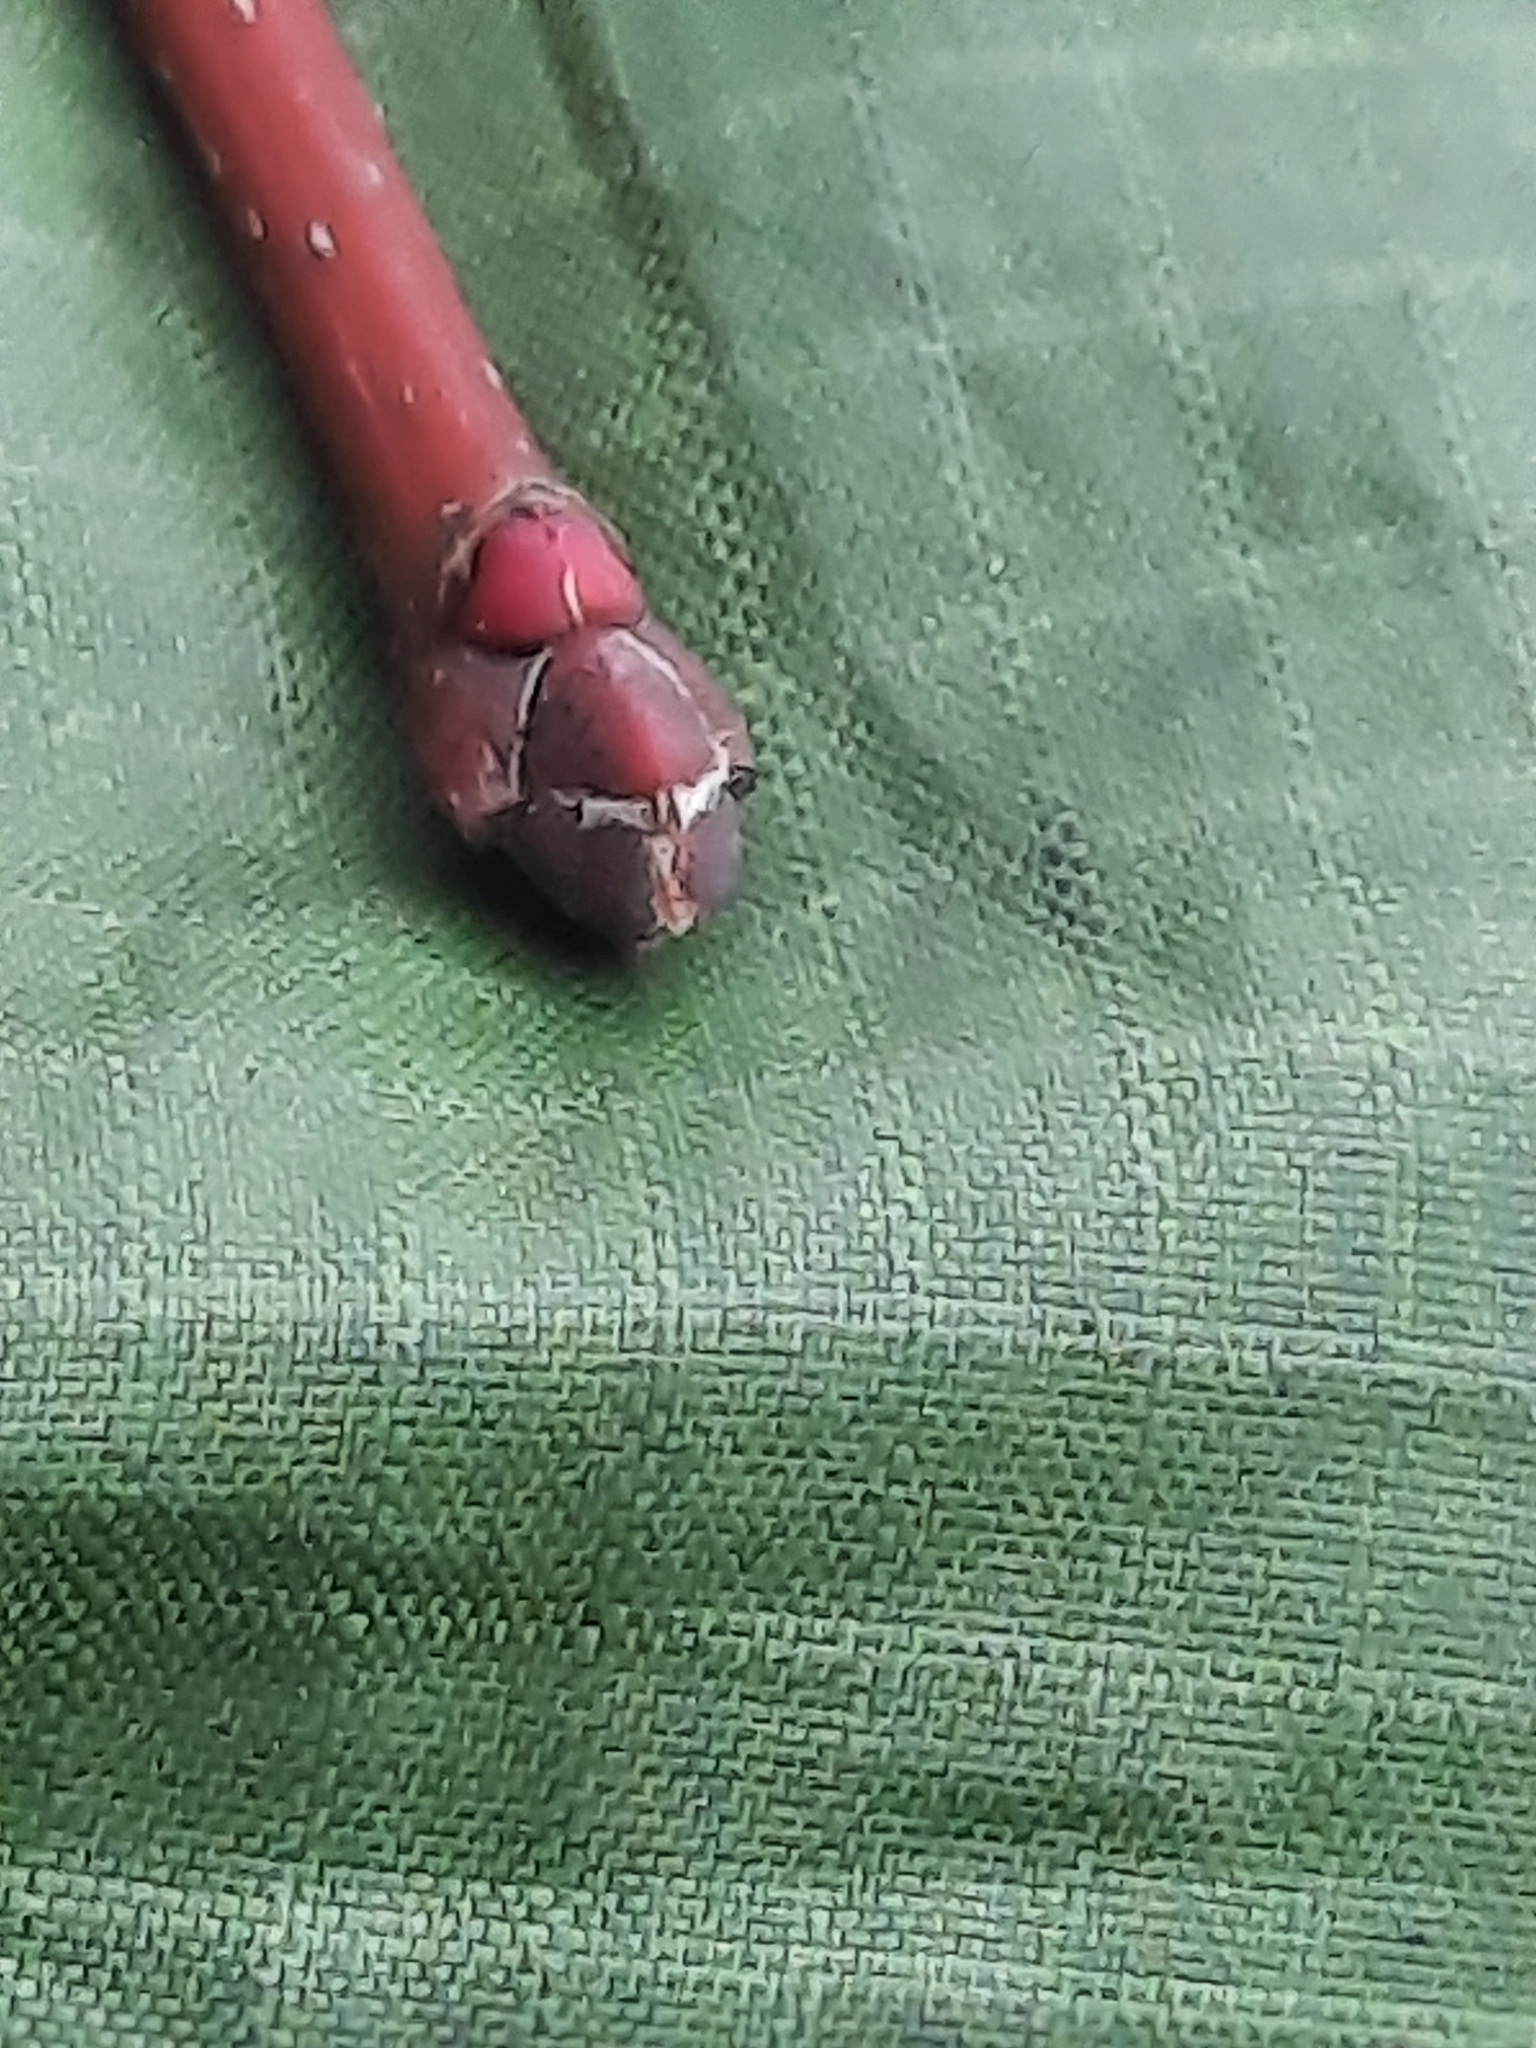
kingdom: Plantae
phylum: Tracheophyta
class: Magnoliopsida
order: Sapindales
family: Sapindaceae
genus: Acer
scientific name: Acer rubrum
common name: Red maple
